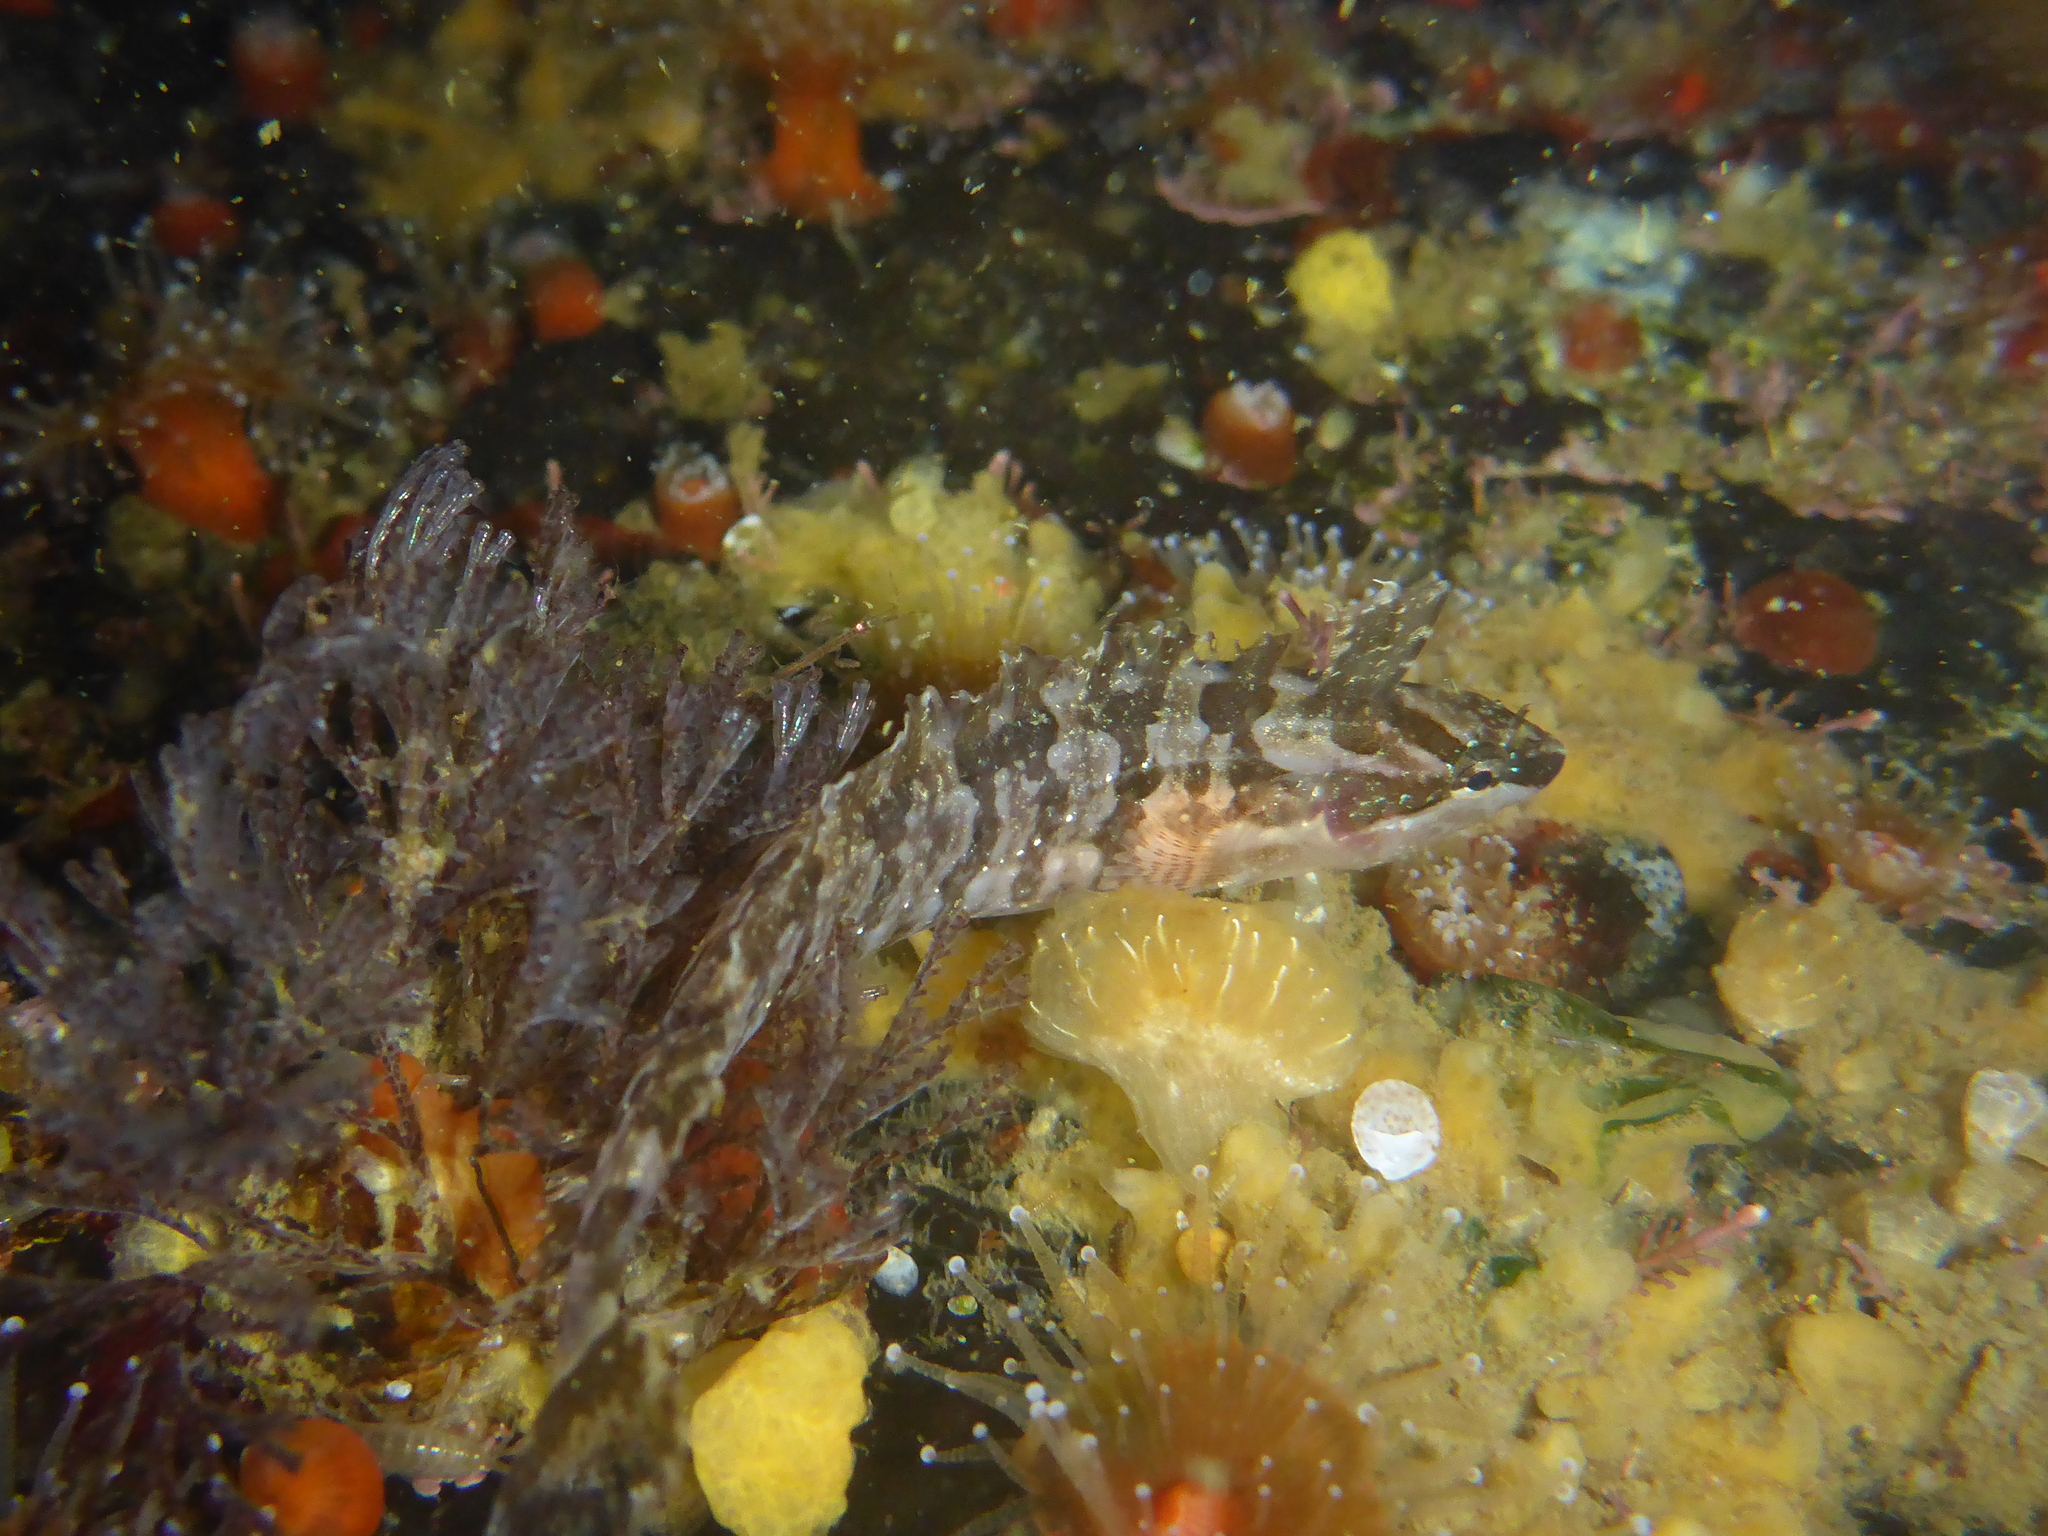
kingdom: Animalia
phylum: Chordata
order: Perciformes
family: Clinidae
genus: Gibbonsia
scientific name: Gibbonsia metzi
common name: Striped kelpfish
